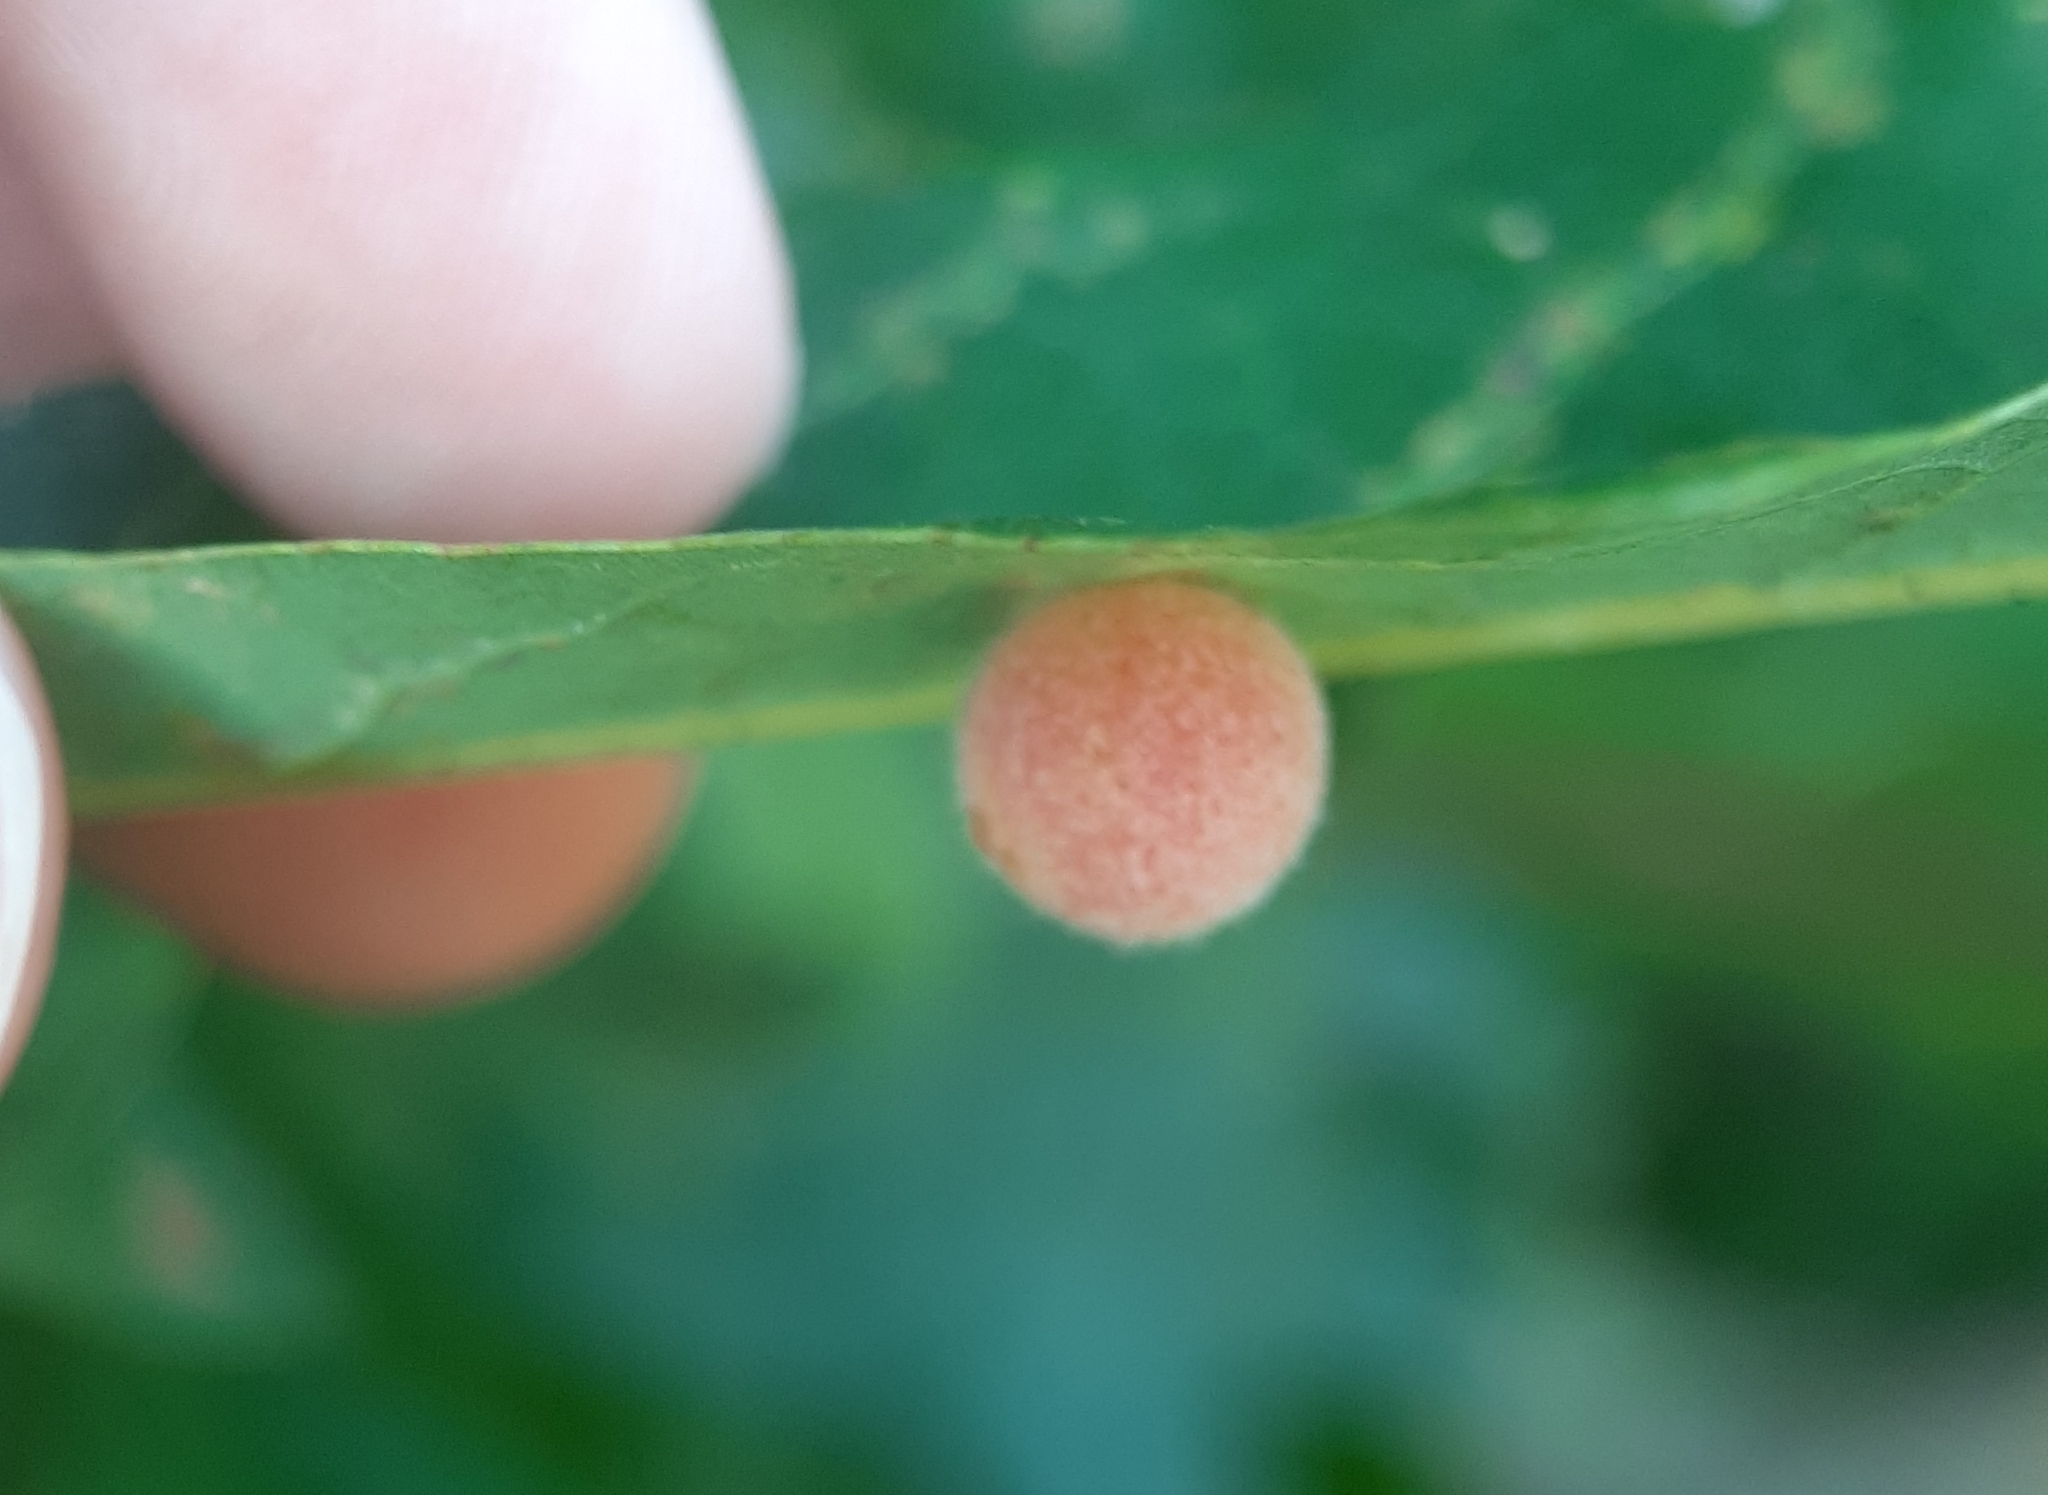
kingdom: Animalia
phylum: Arthropoda
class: Insecta
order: Hymenoptera
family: Cynipidae
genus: Philonix
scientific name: Philonix fulvicollis
